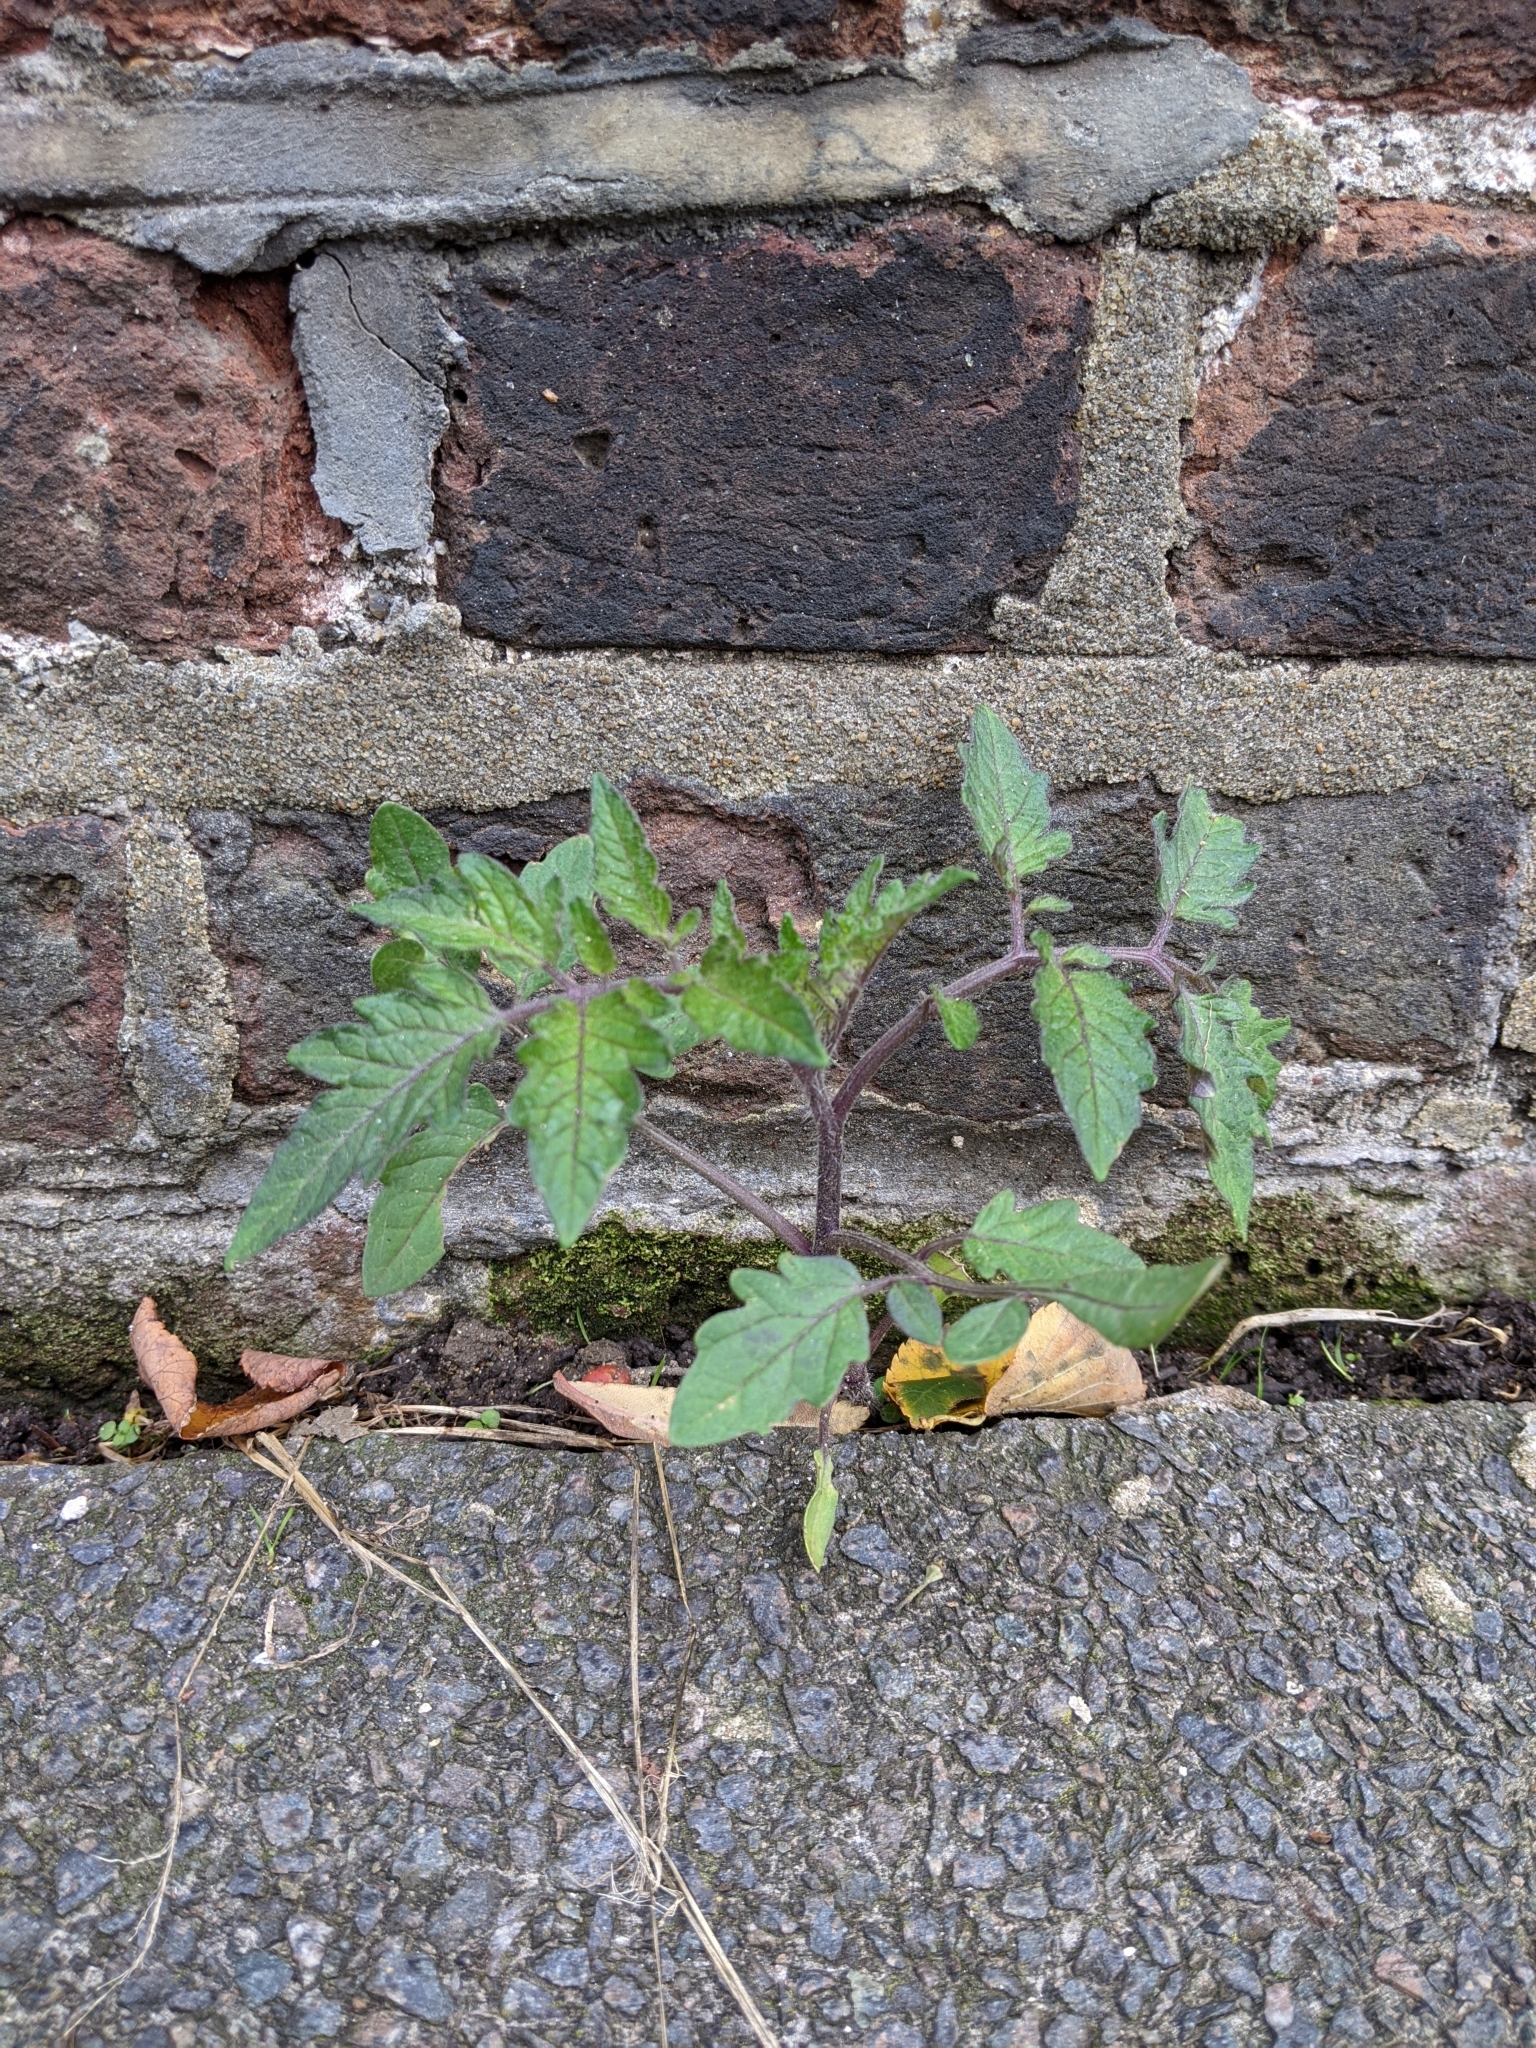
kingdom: Plantae
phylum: Tracheophyta
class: Magnoliopsida
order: Solanales
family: Solanaceae
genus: Solanum
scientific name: Solanum lycopersicum
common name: Garden tomato
